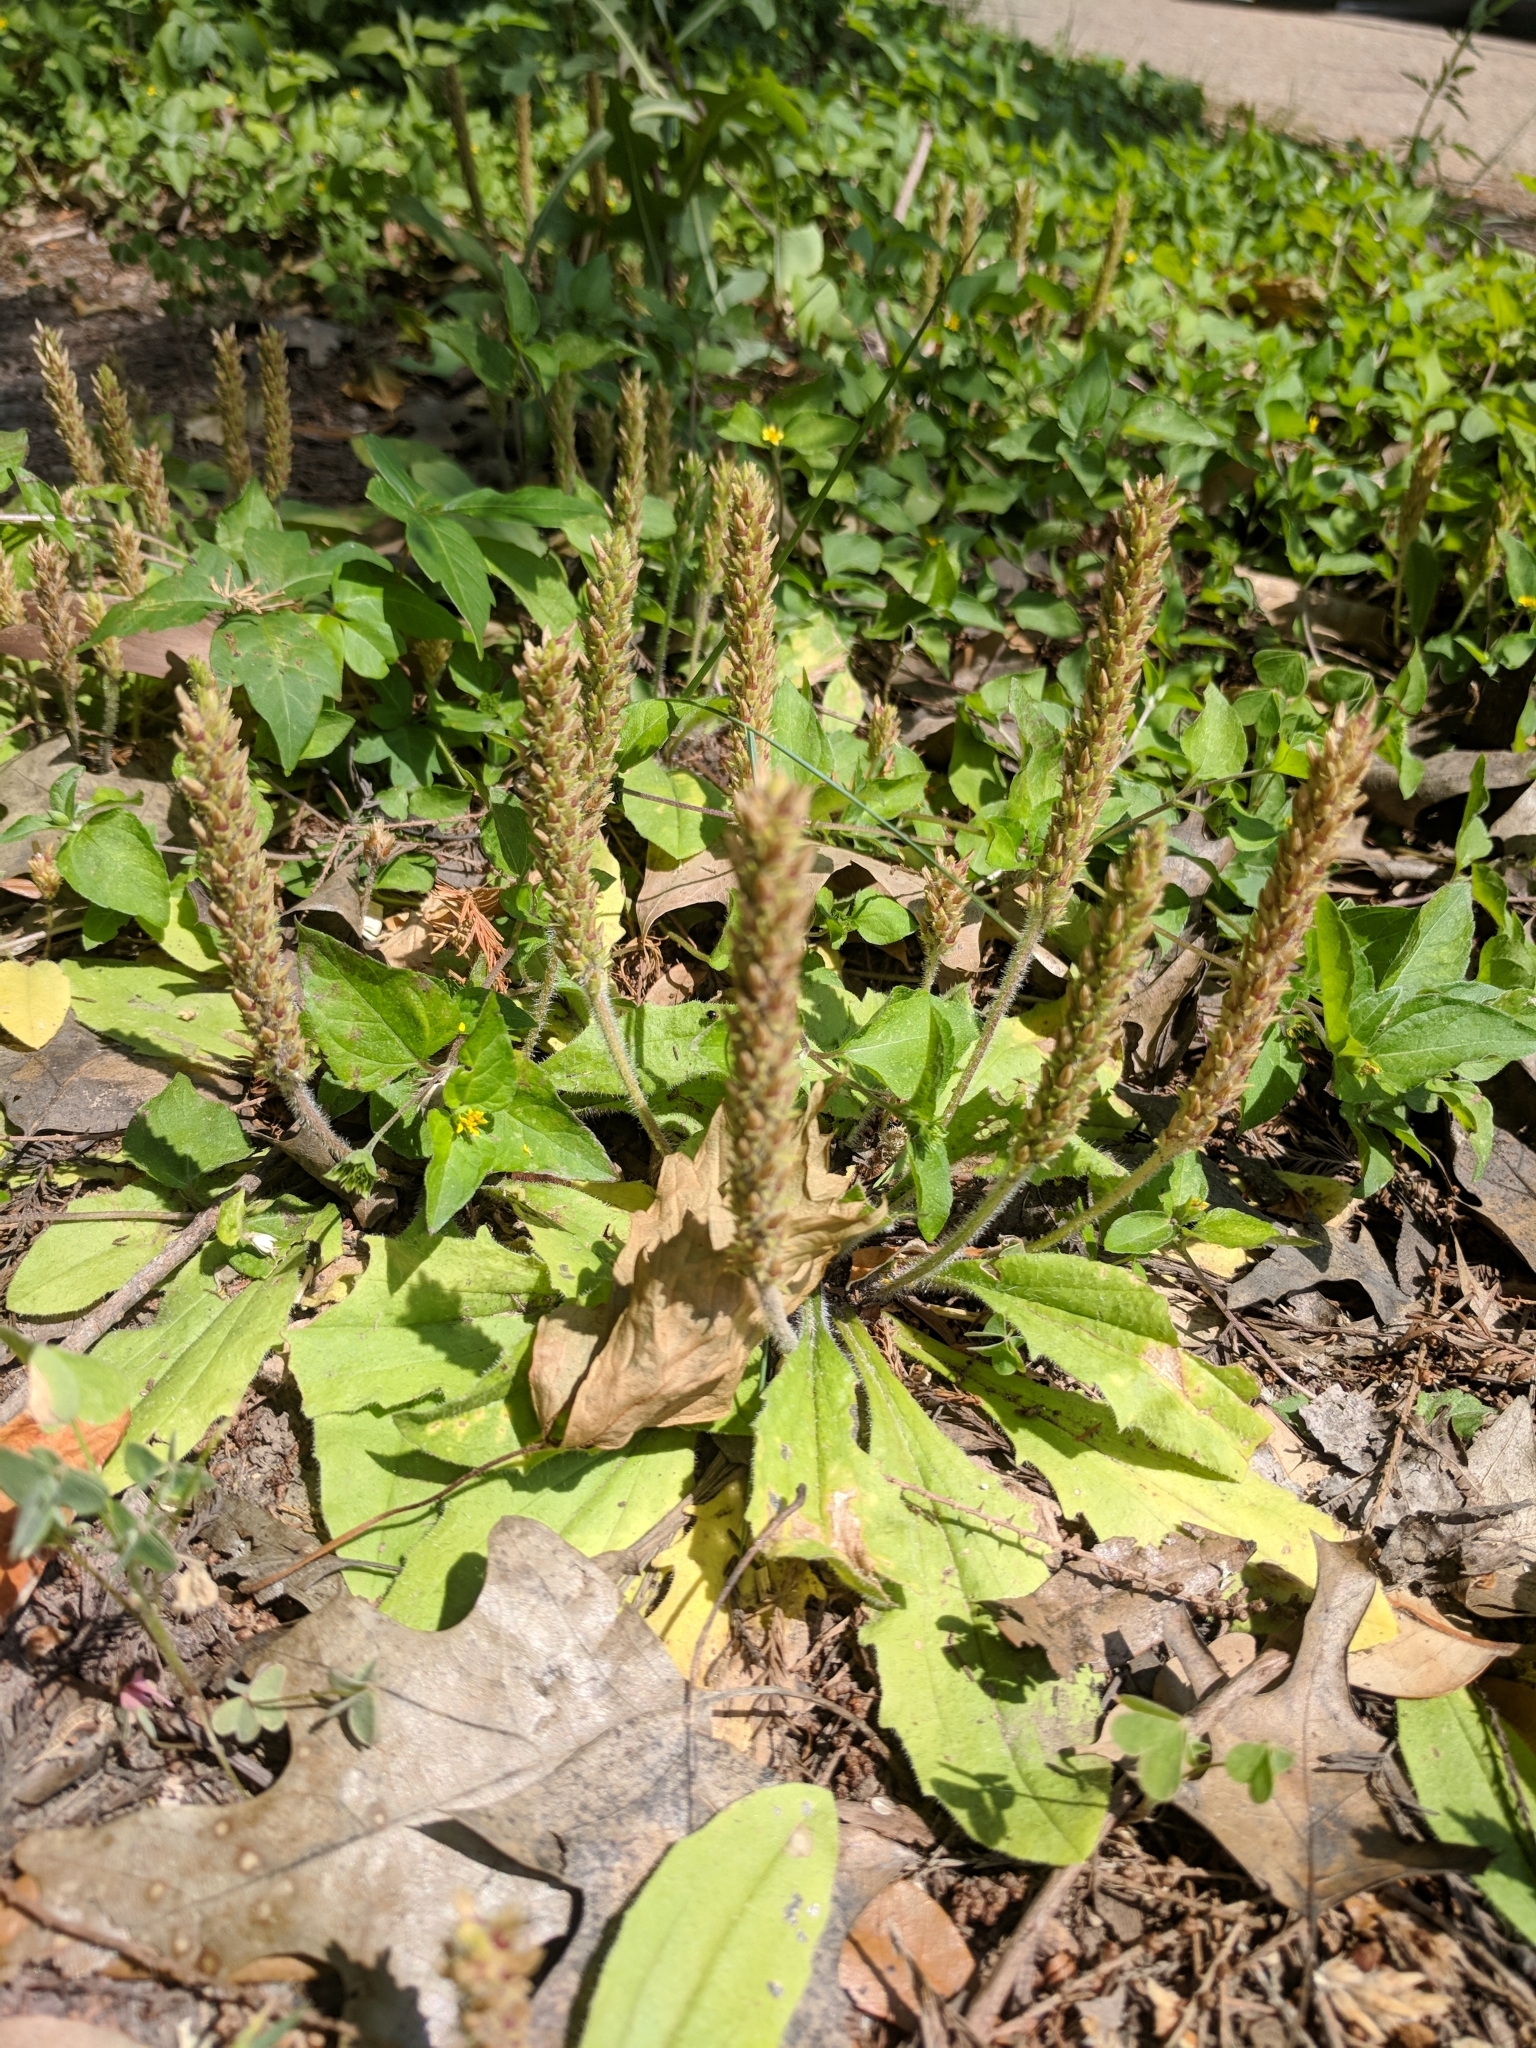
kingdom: Plantae
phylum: Tracheophyta
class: Magnoliopsida
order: Lamiales
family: Plantaginaceae
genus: Plantago
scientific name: Plantago rhodosperma
